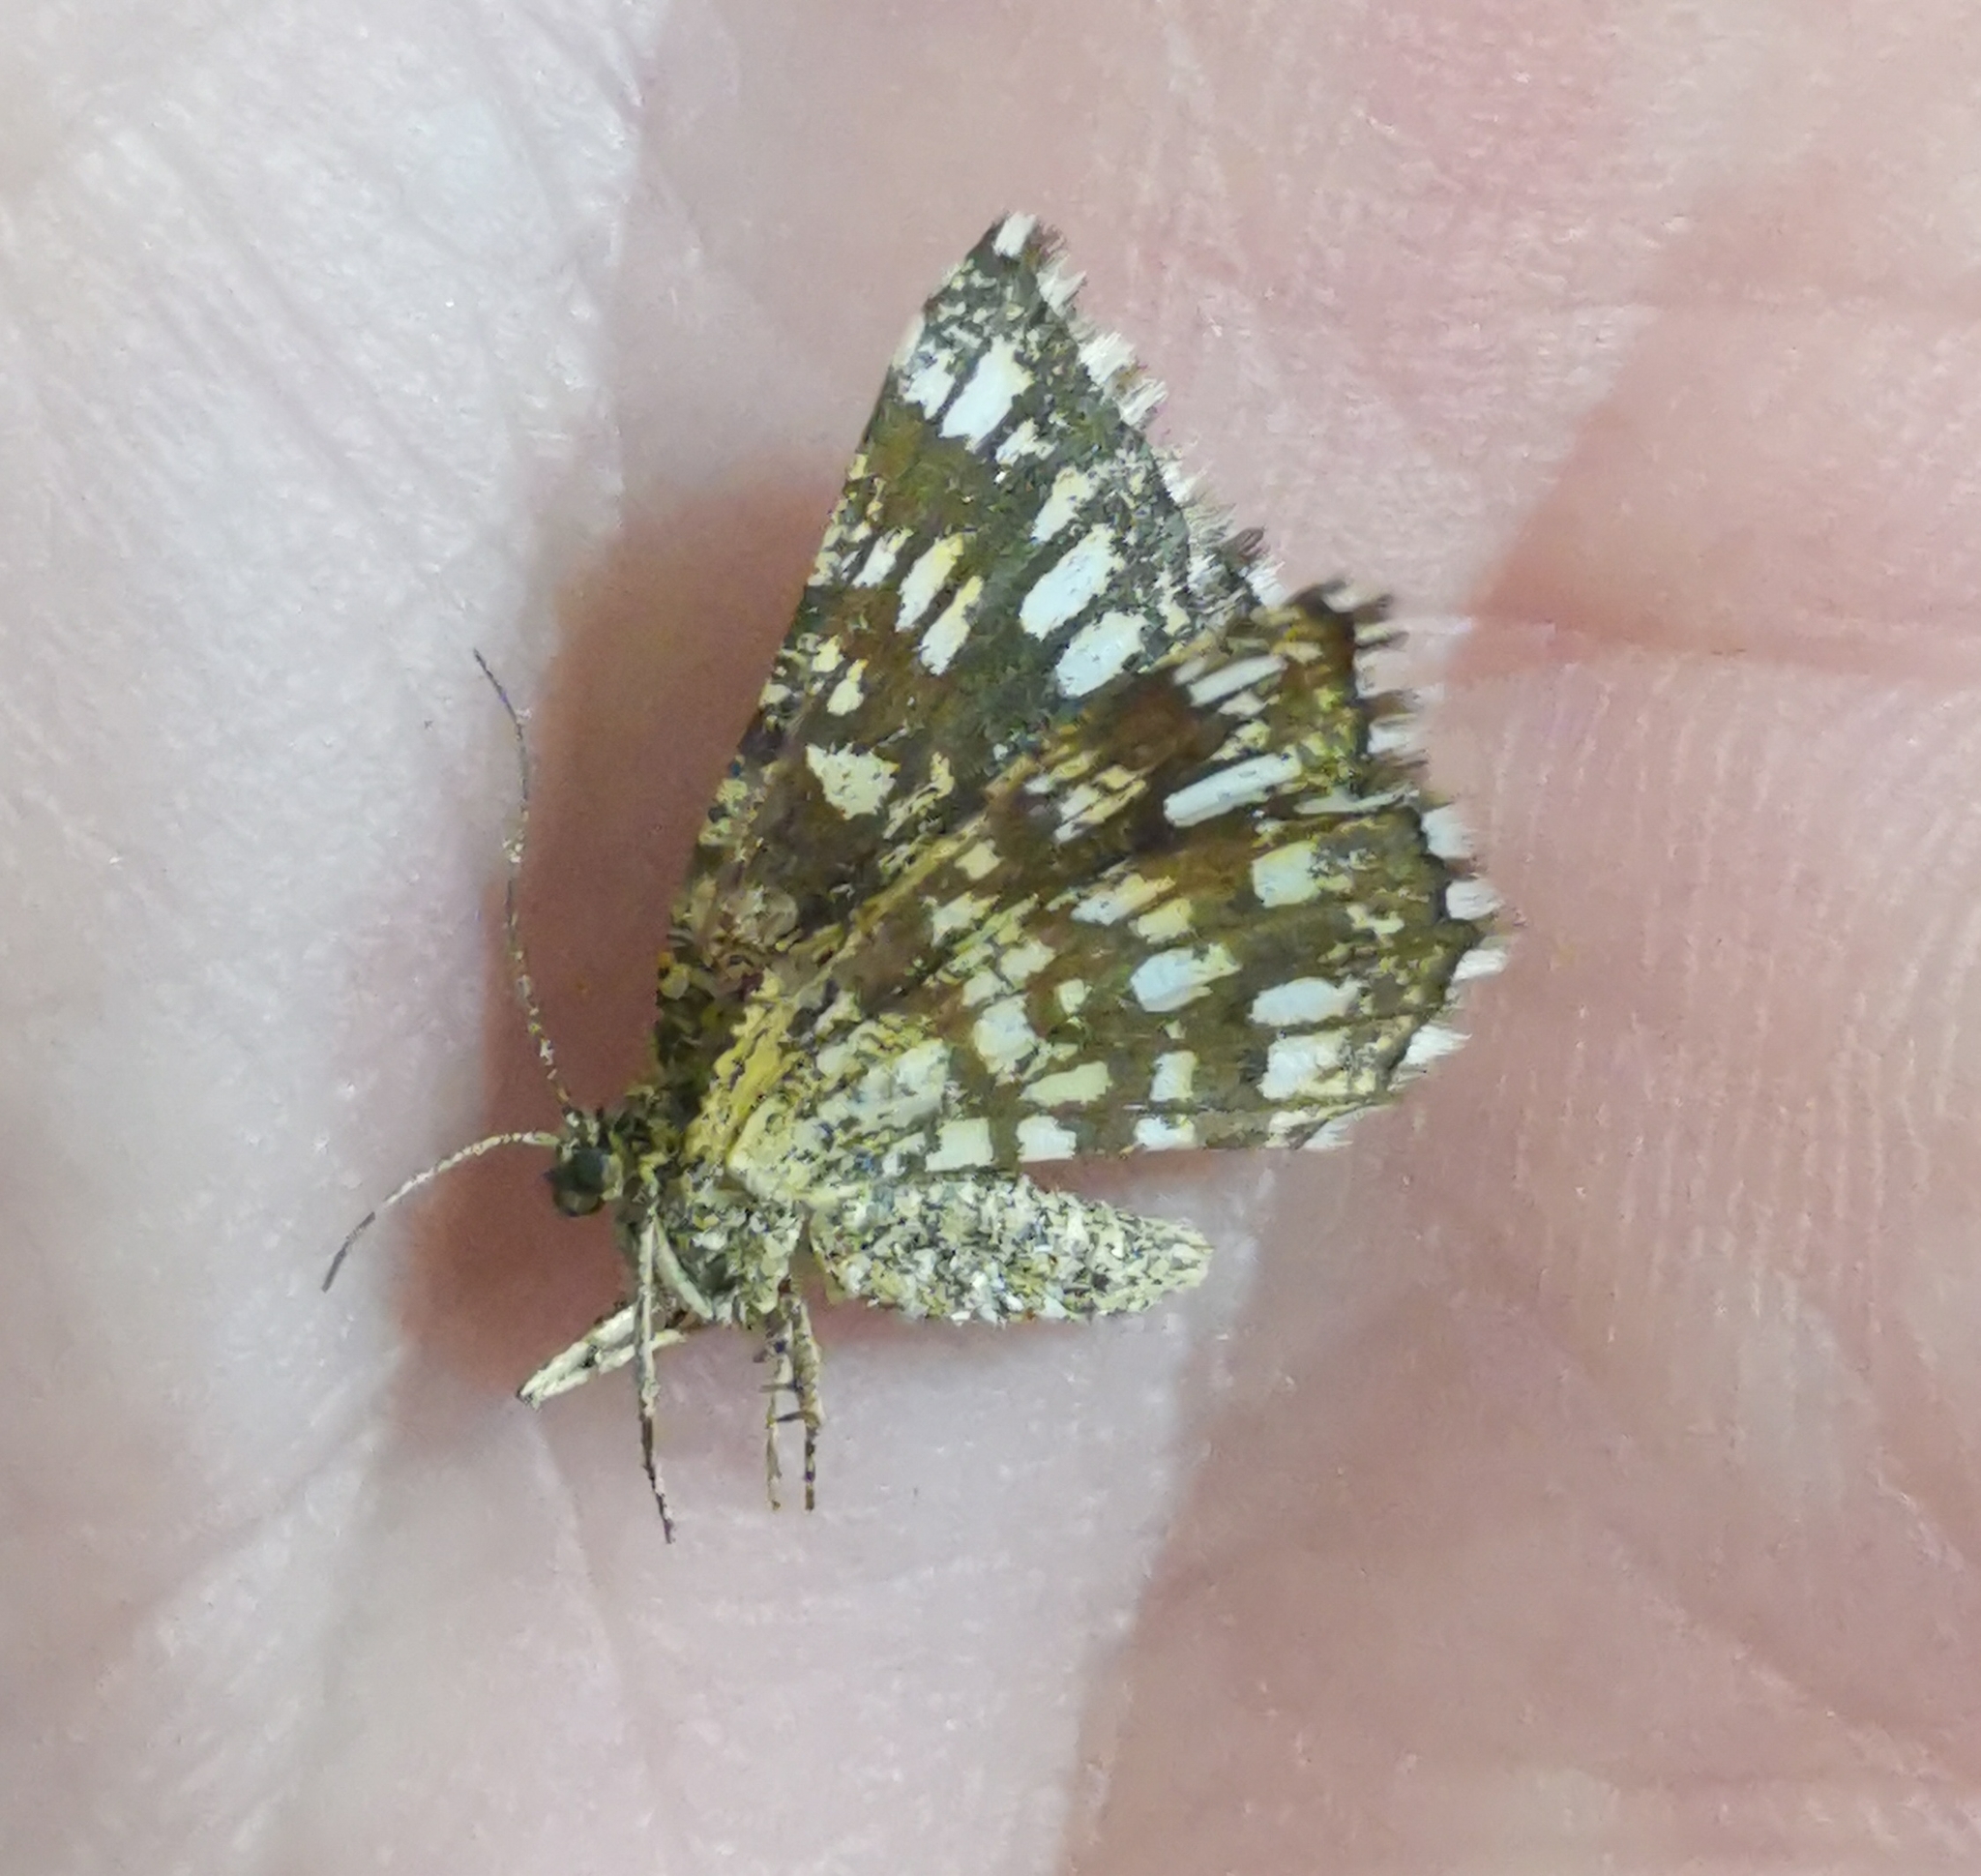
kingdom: Animalia
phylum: Arthropoda
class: Insecta
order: Lepidoptera
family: Geometridae
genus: Chiasmia
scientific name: Chiasmia clathrata
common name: Latticed heath
